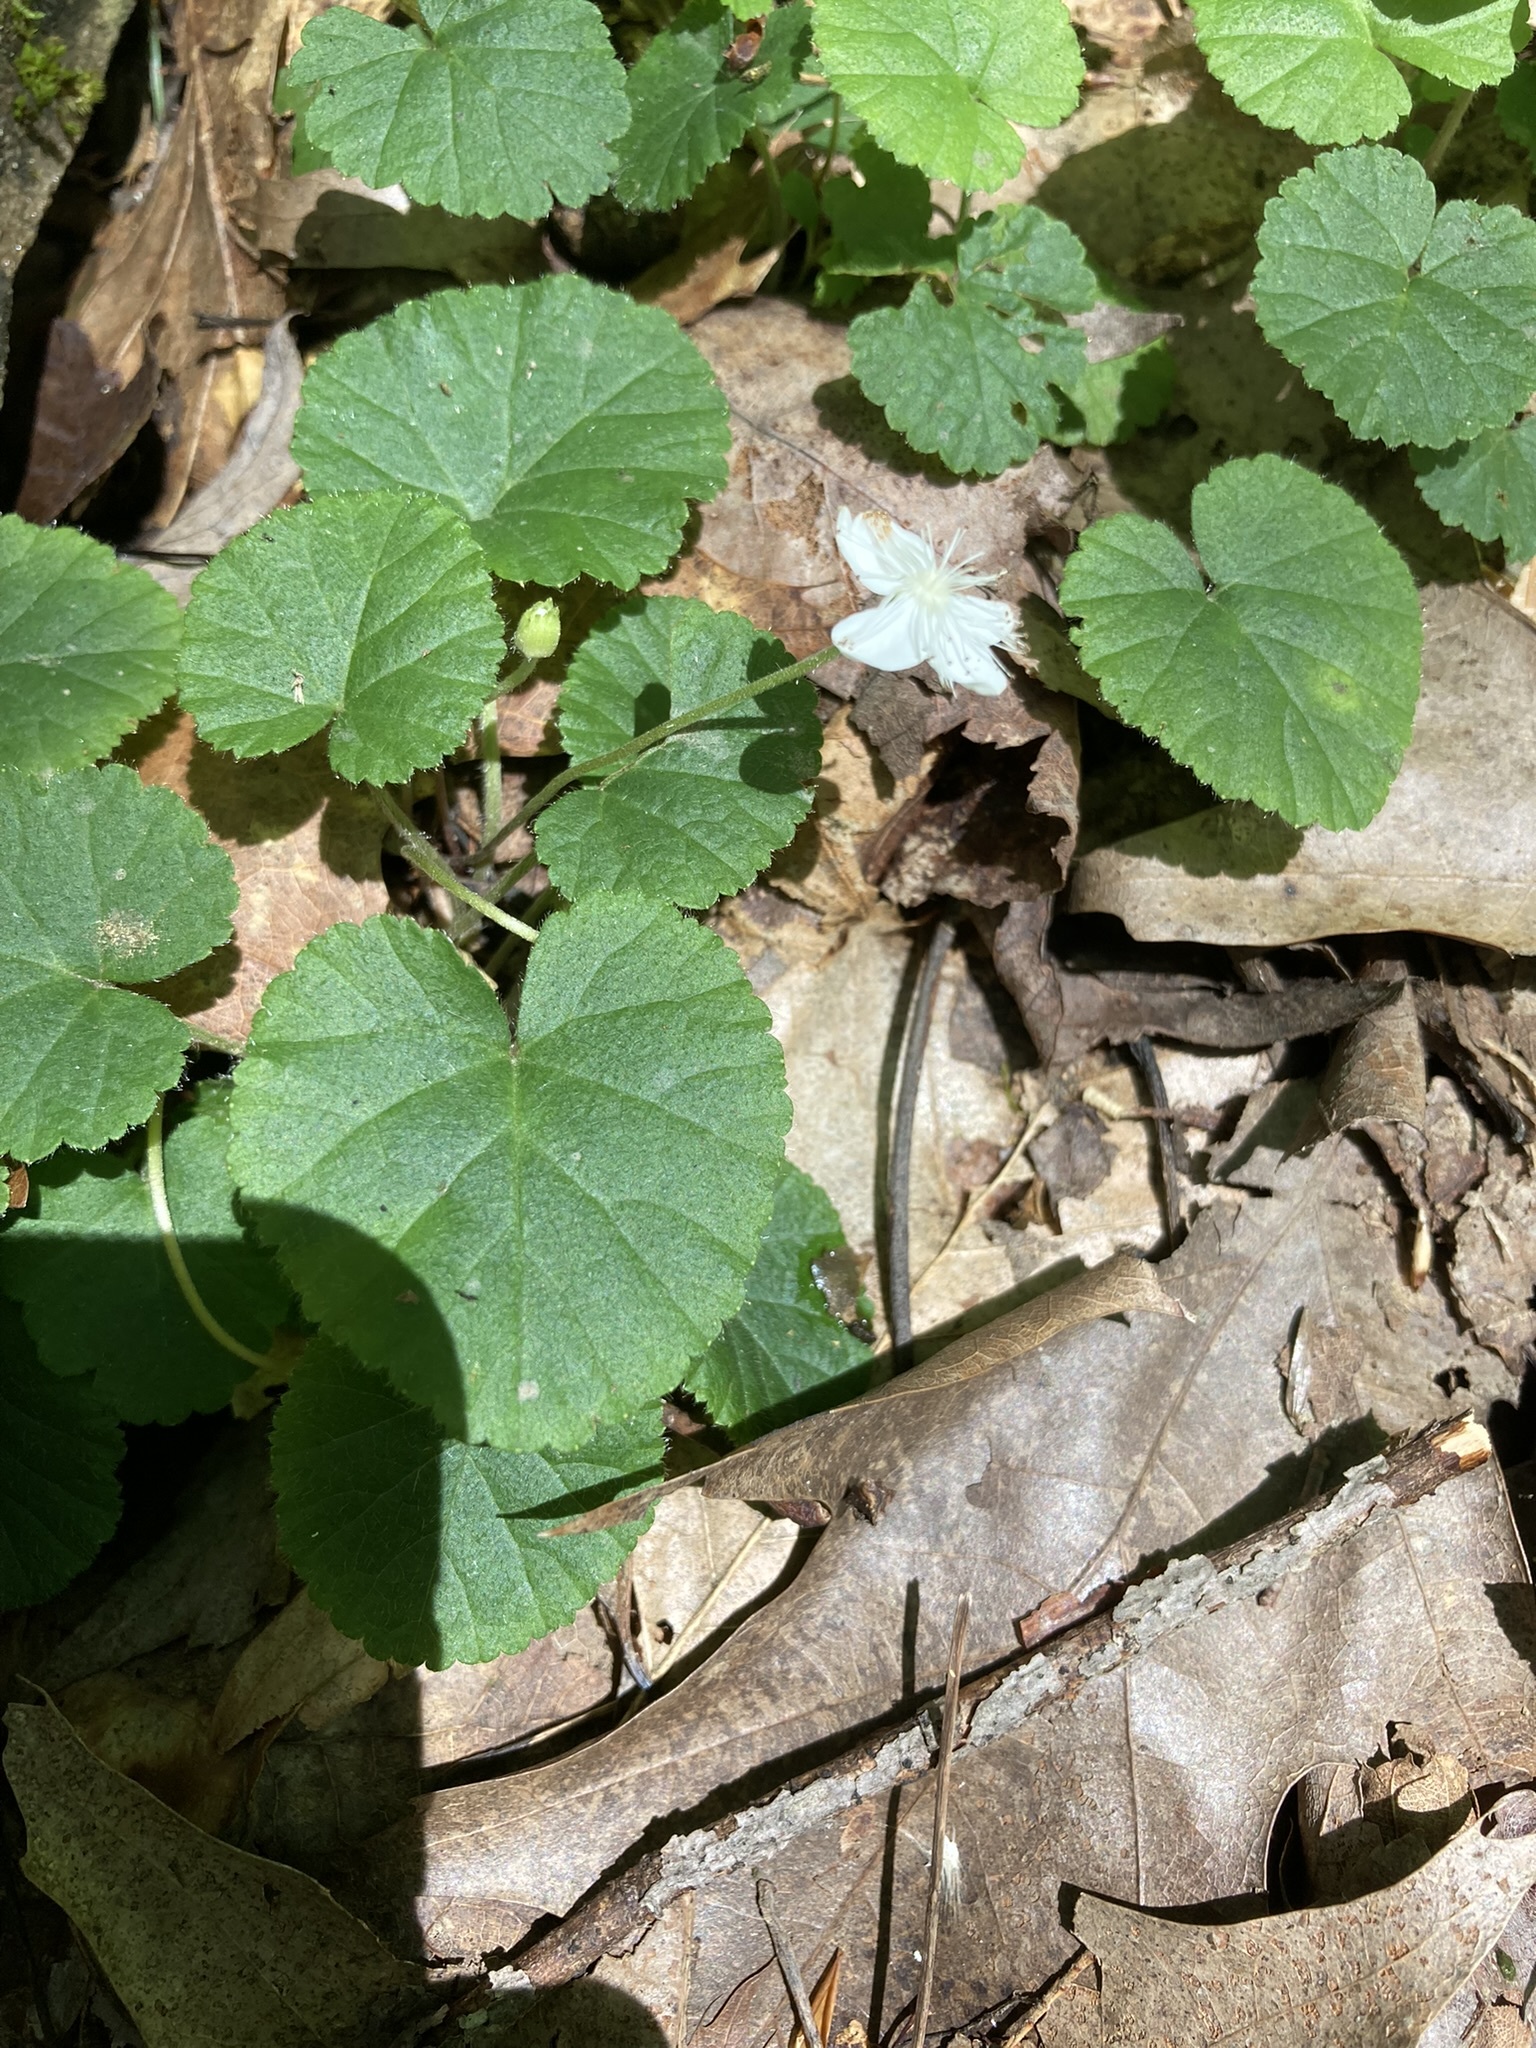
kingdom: Plantae
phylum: Tracheophyta
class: Magnoliopsida
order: Rosales
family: Rosaceae
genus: Dalibarda
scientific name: Dalibarda repens
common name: Dewdrop
